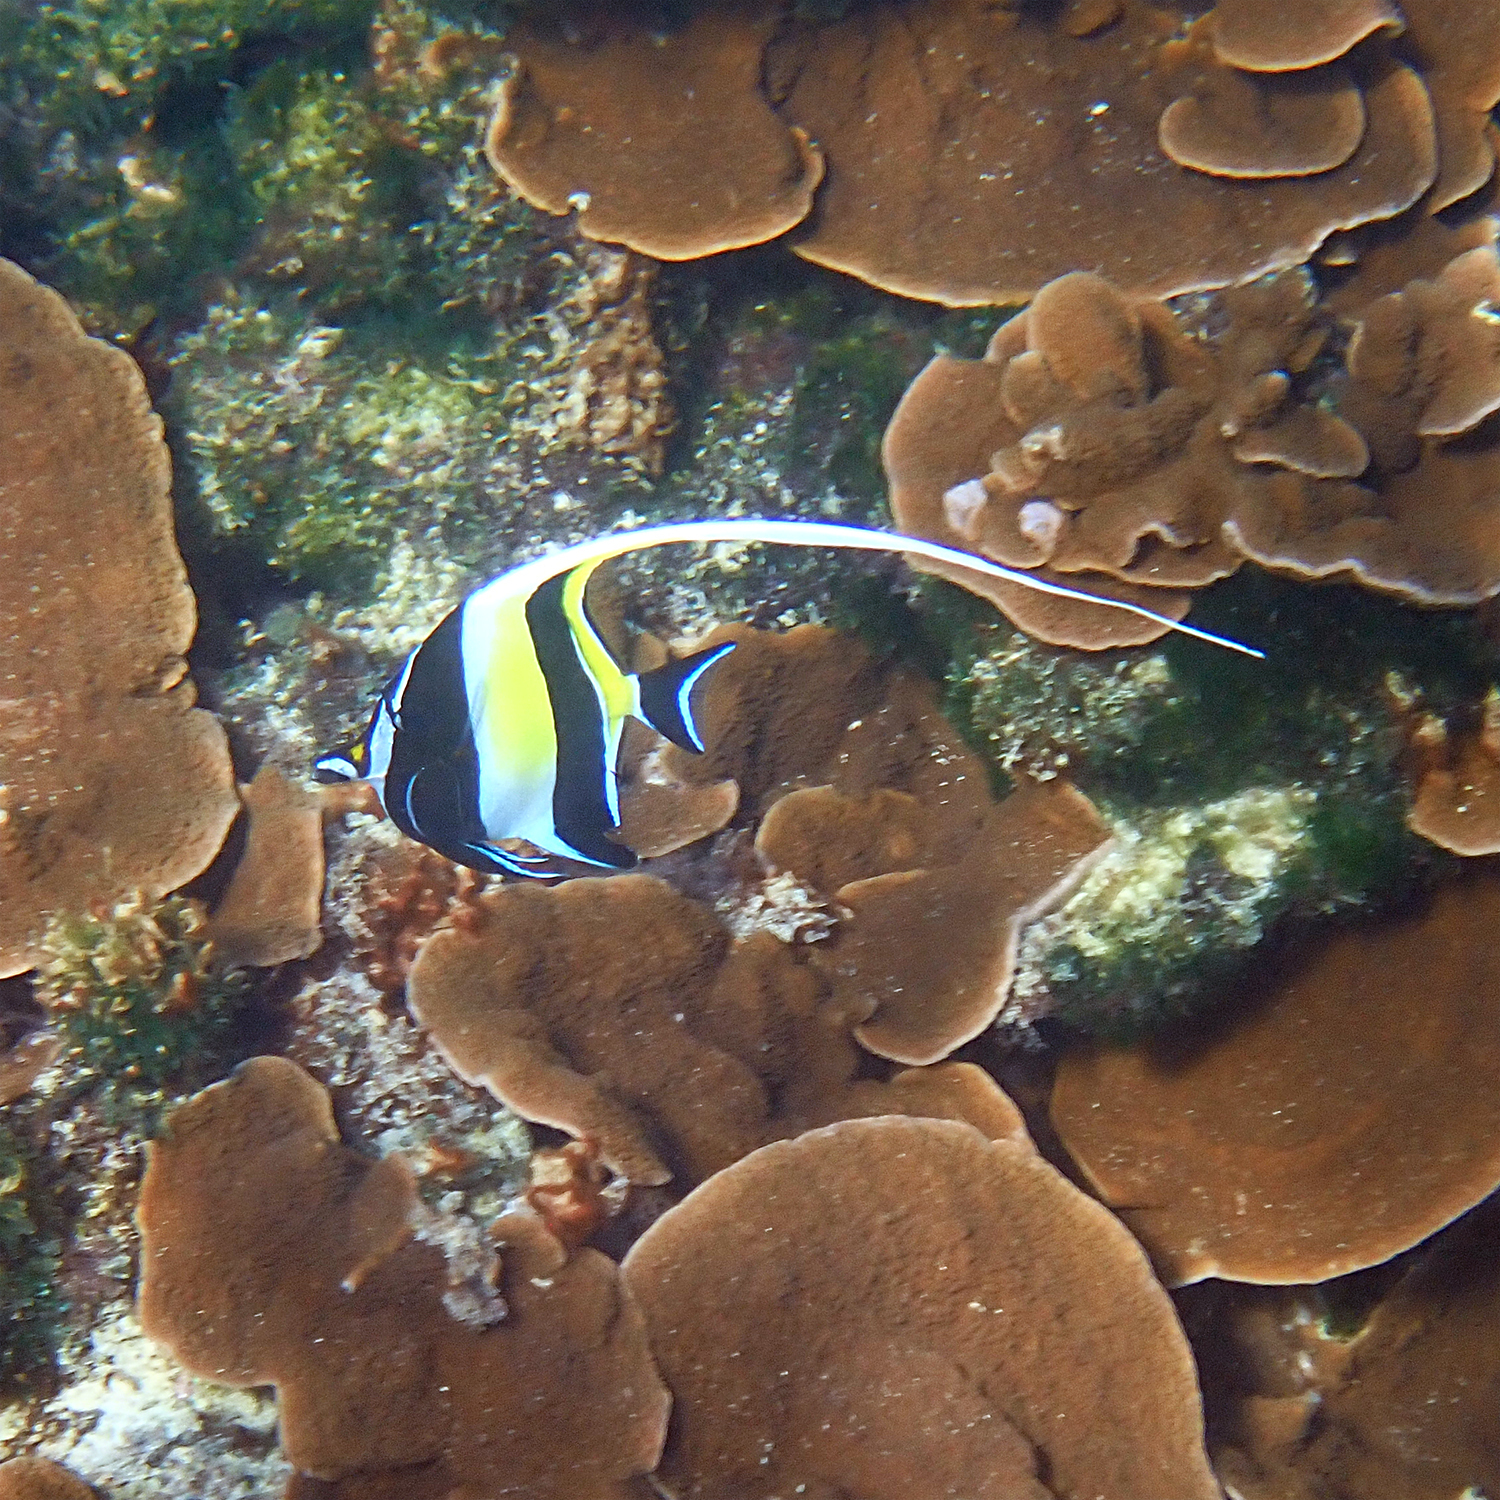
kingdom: Animalia
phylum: Chordata
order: Perciformes
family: Zanclidae
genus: Zanclus
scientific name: Zanclus cornutus
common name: Moorish idol
